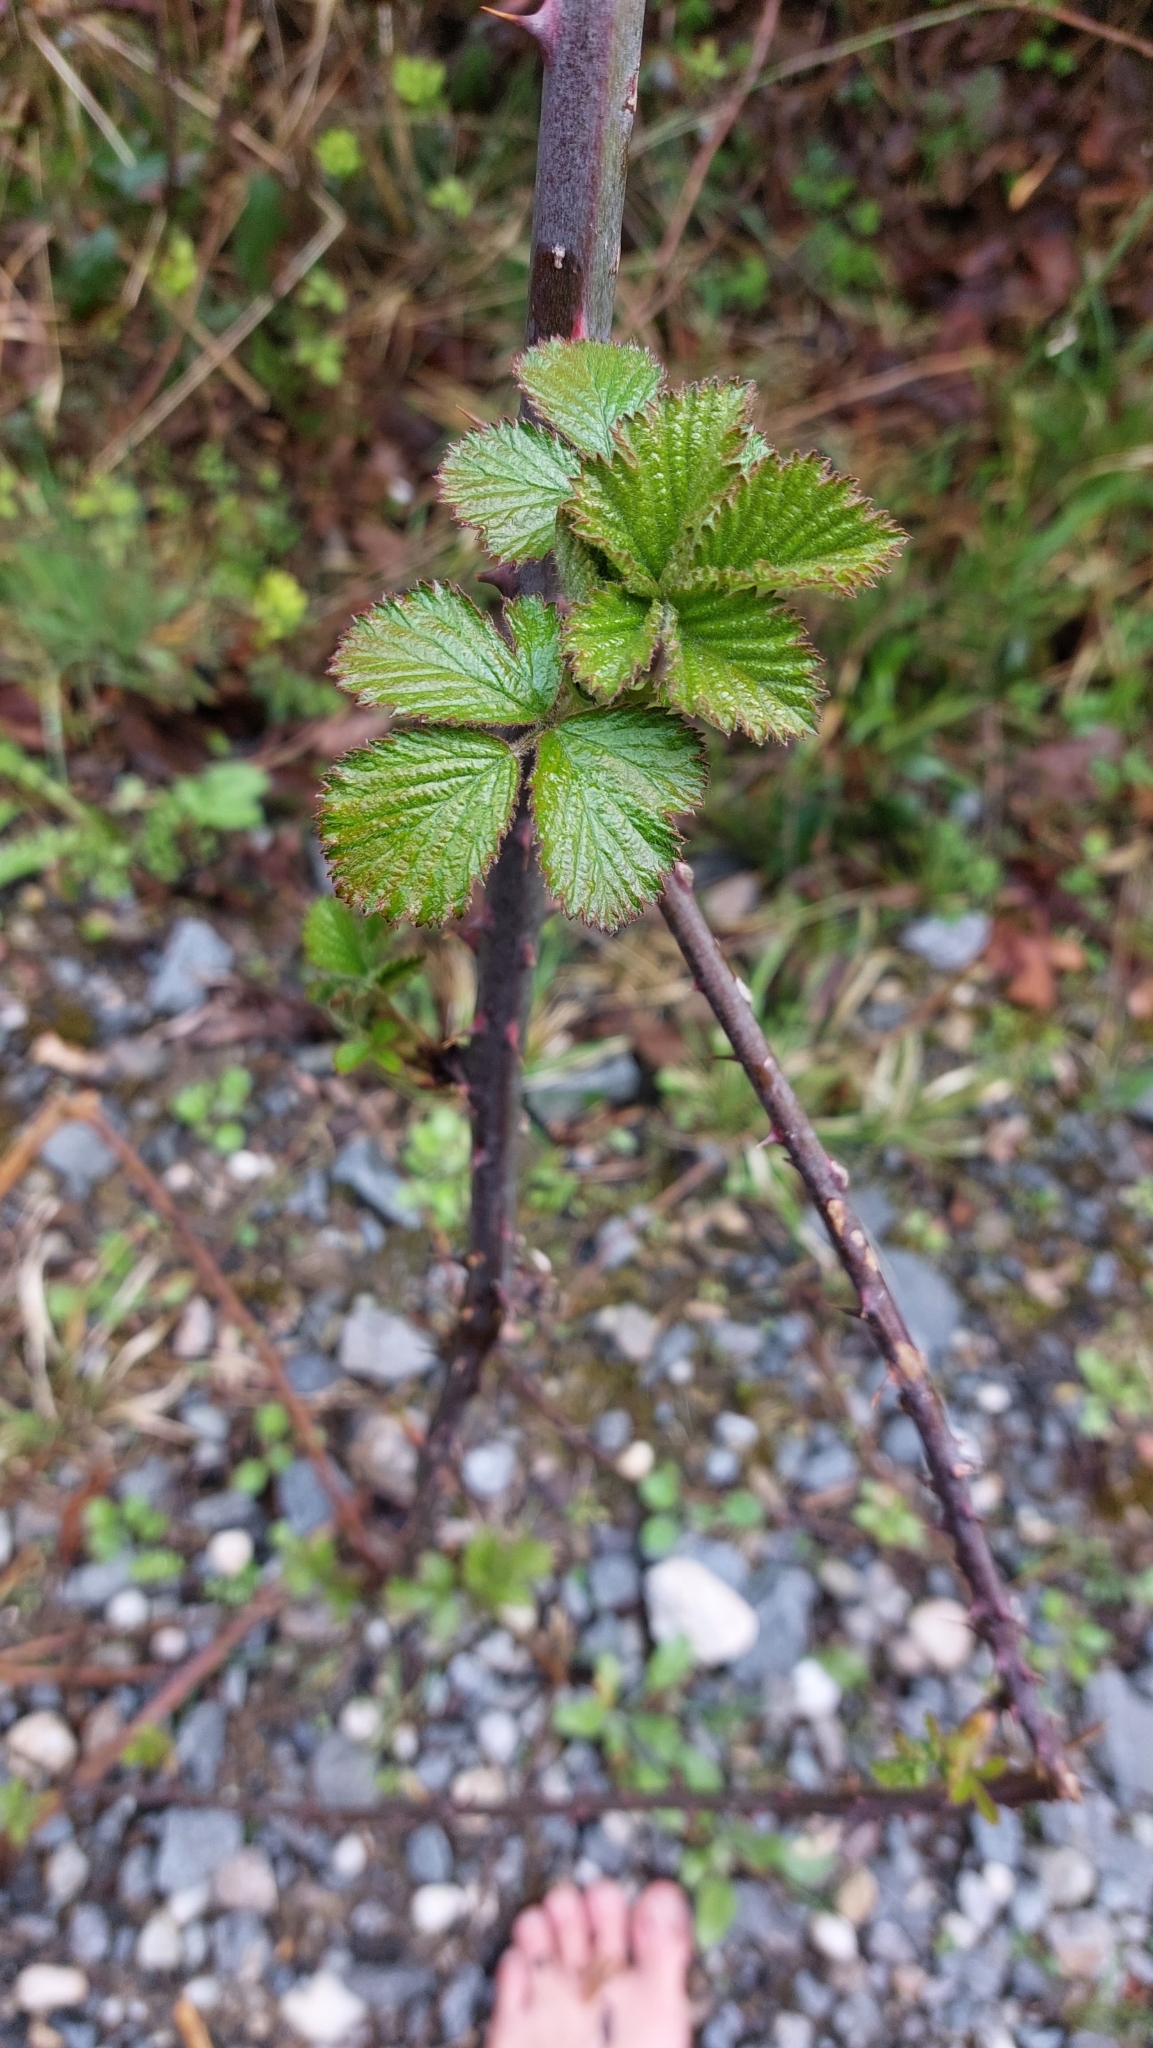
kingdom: Plantae
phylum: Tracheophyta
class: Magnoliopsida
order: Rosales
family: Rosaceae
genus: Rubus
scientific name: Rubus
